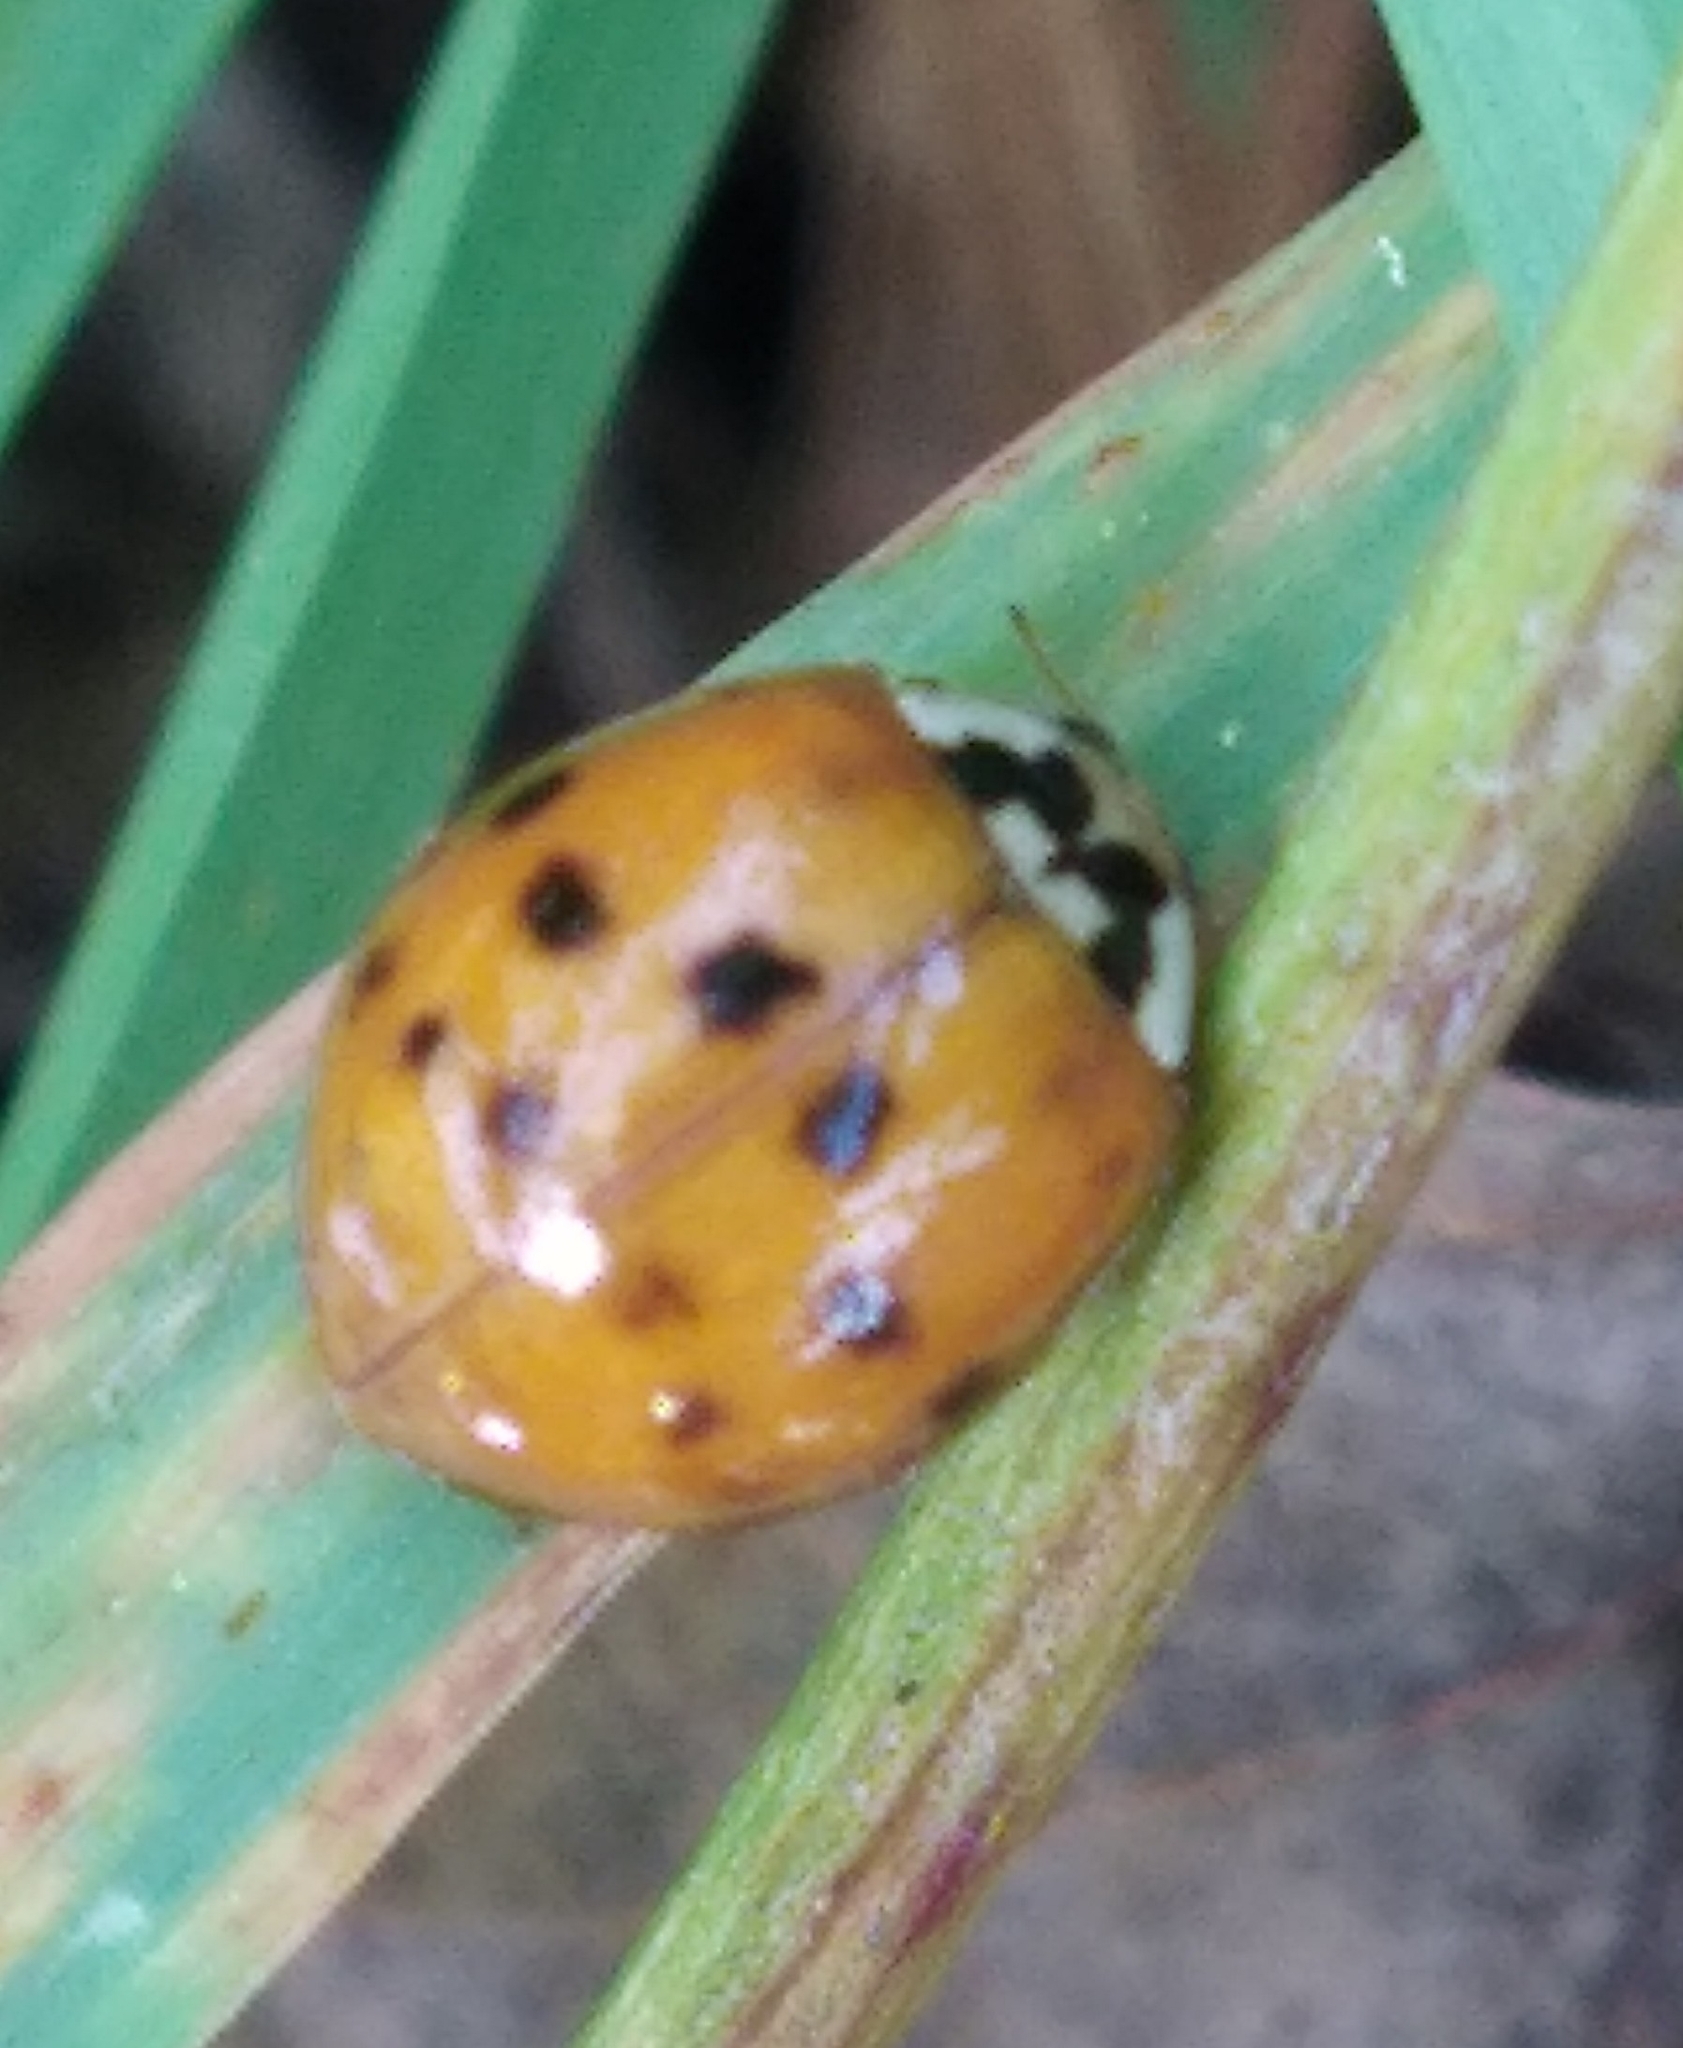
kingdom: Animalia
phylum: Arthropoda
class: Insecta
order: Coleoptera
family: Coccinellidae
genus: Harmonia
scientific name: Harmonia axyridis
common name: Harlequin ladybird
